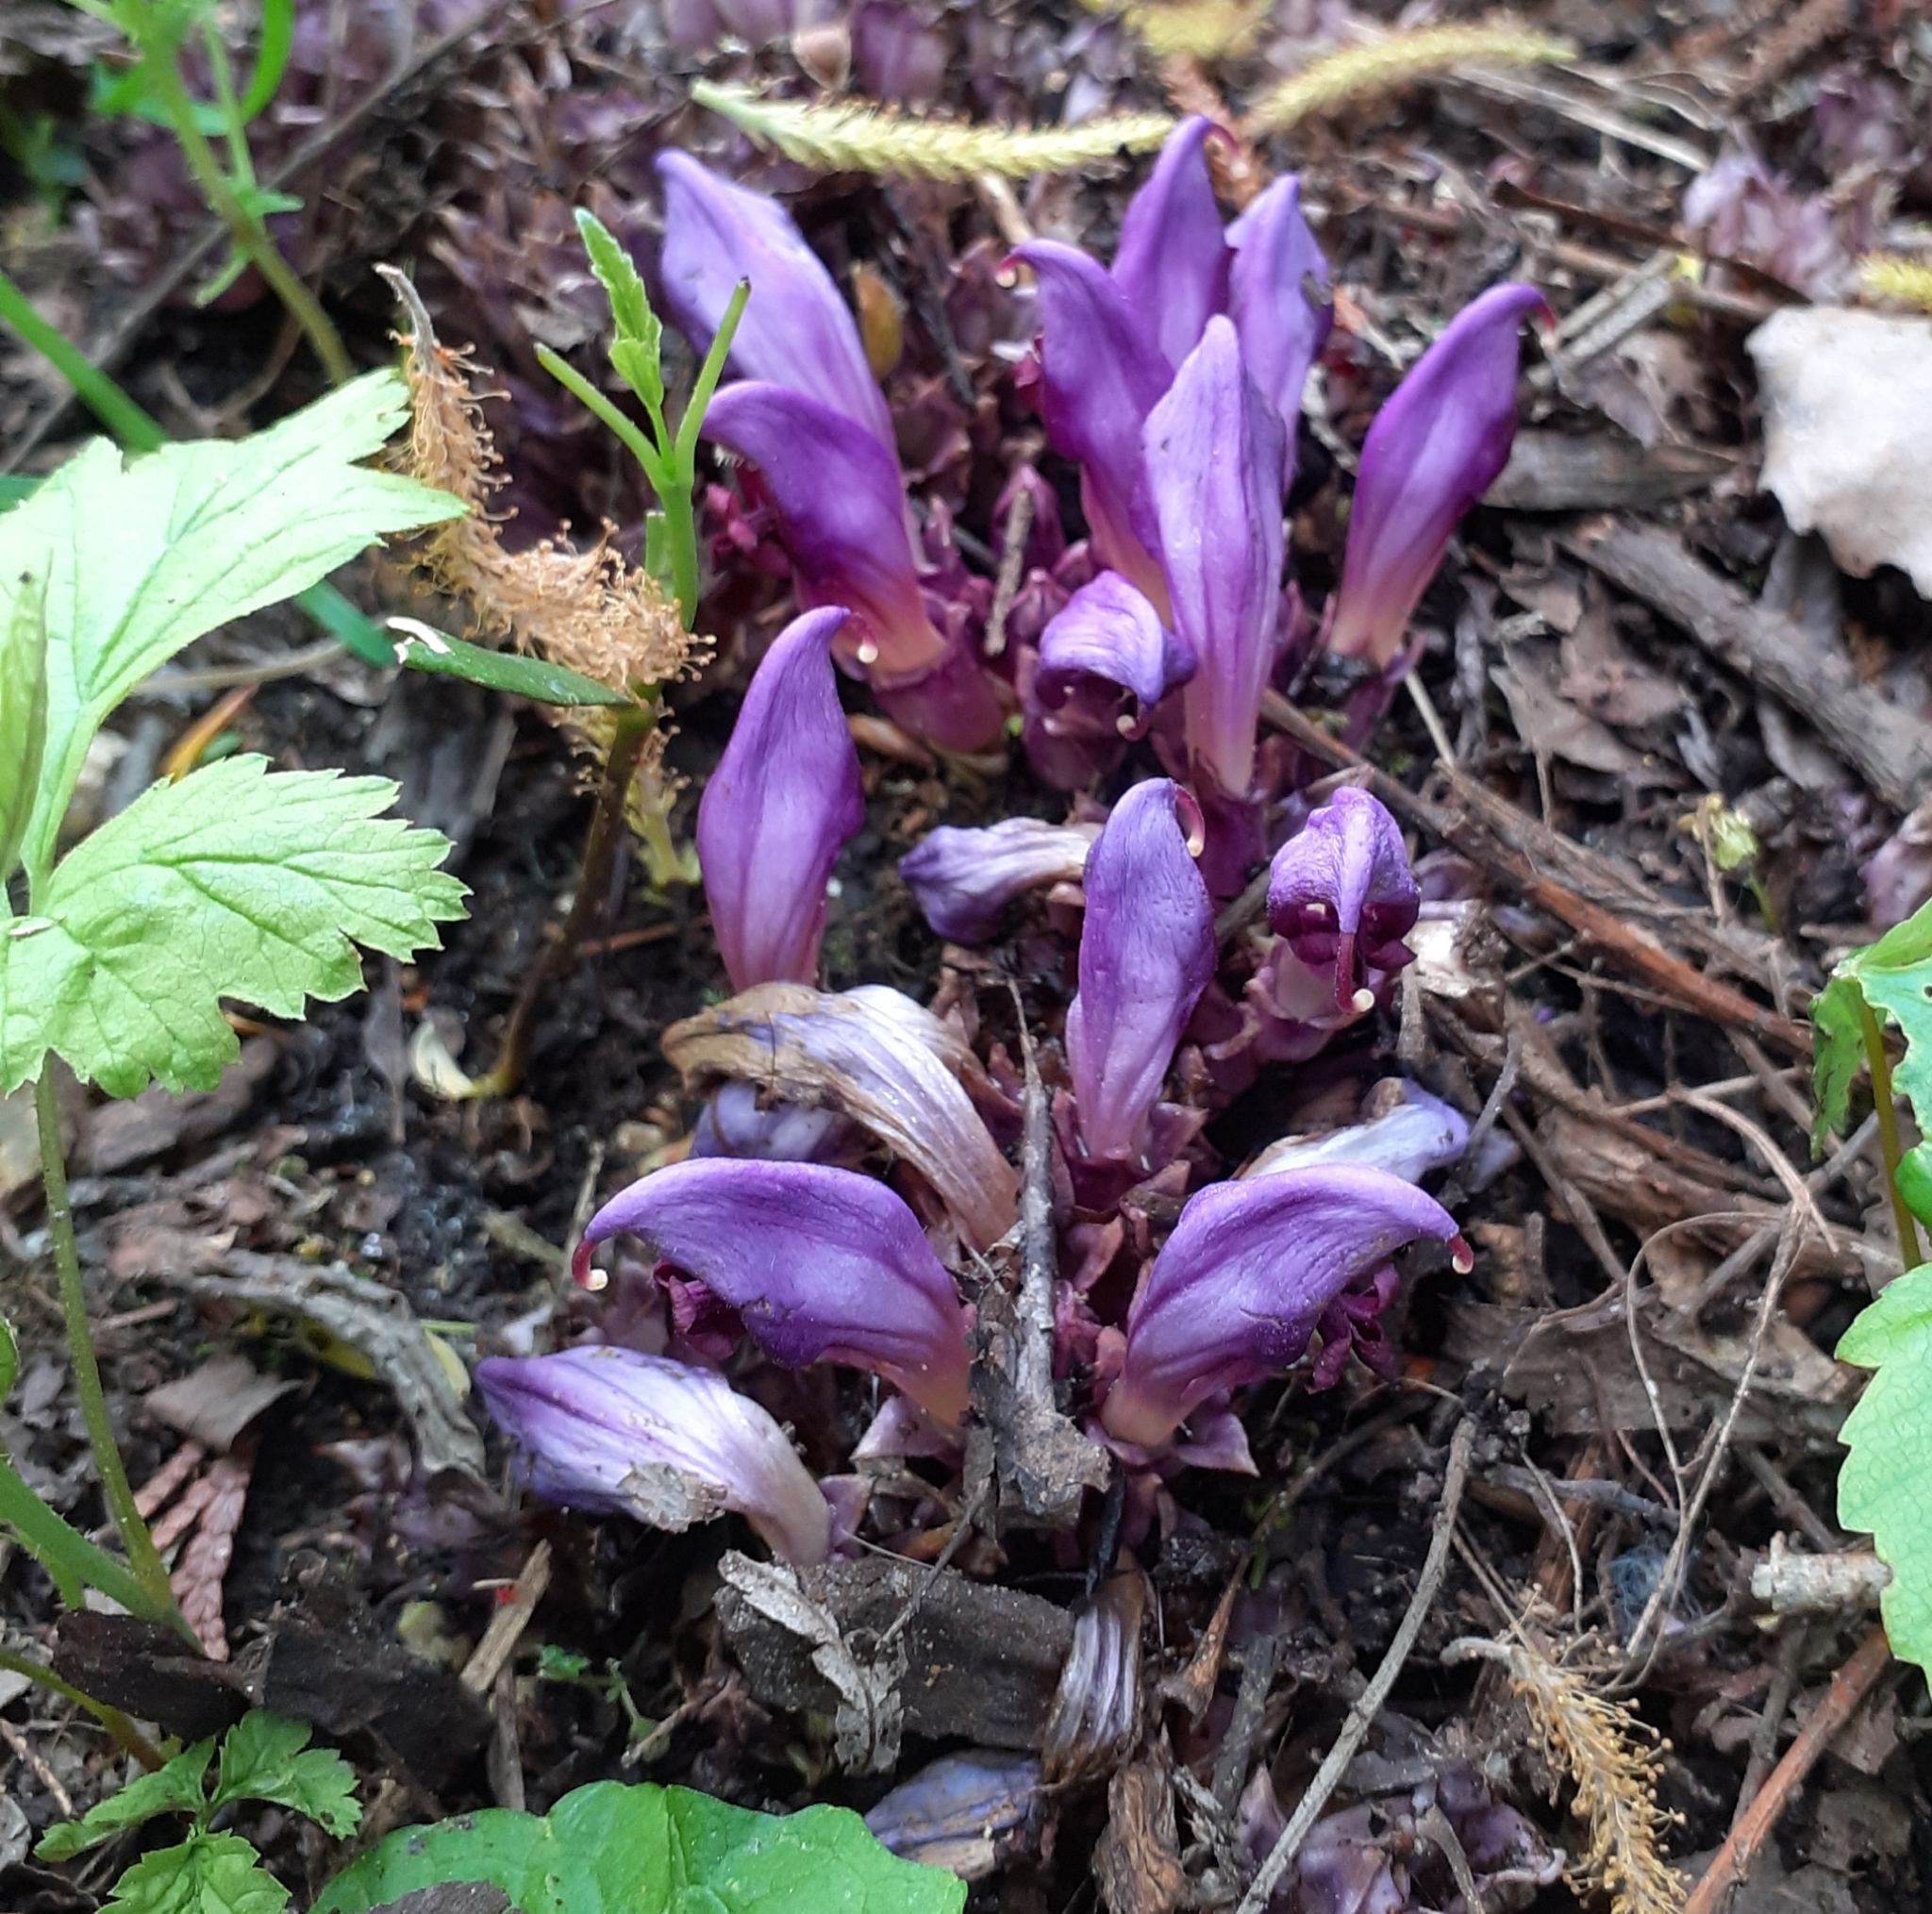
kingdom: Plantae
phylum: Tracheophyta
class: Magnoliopsida
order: Lamiales
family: Orobanchaceae
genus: Lathraea
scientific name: Lathraea clandestina
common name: Purple toothwort
